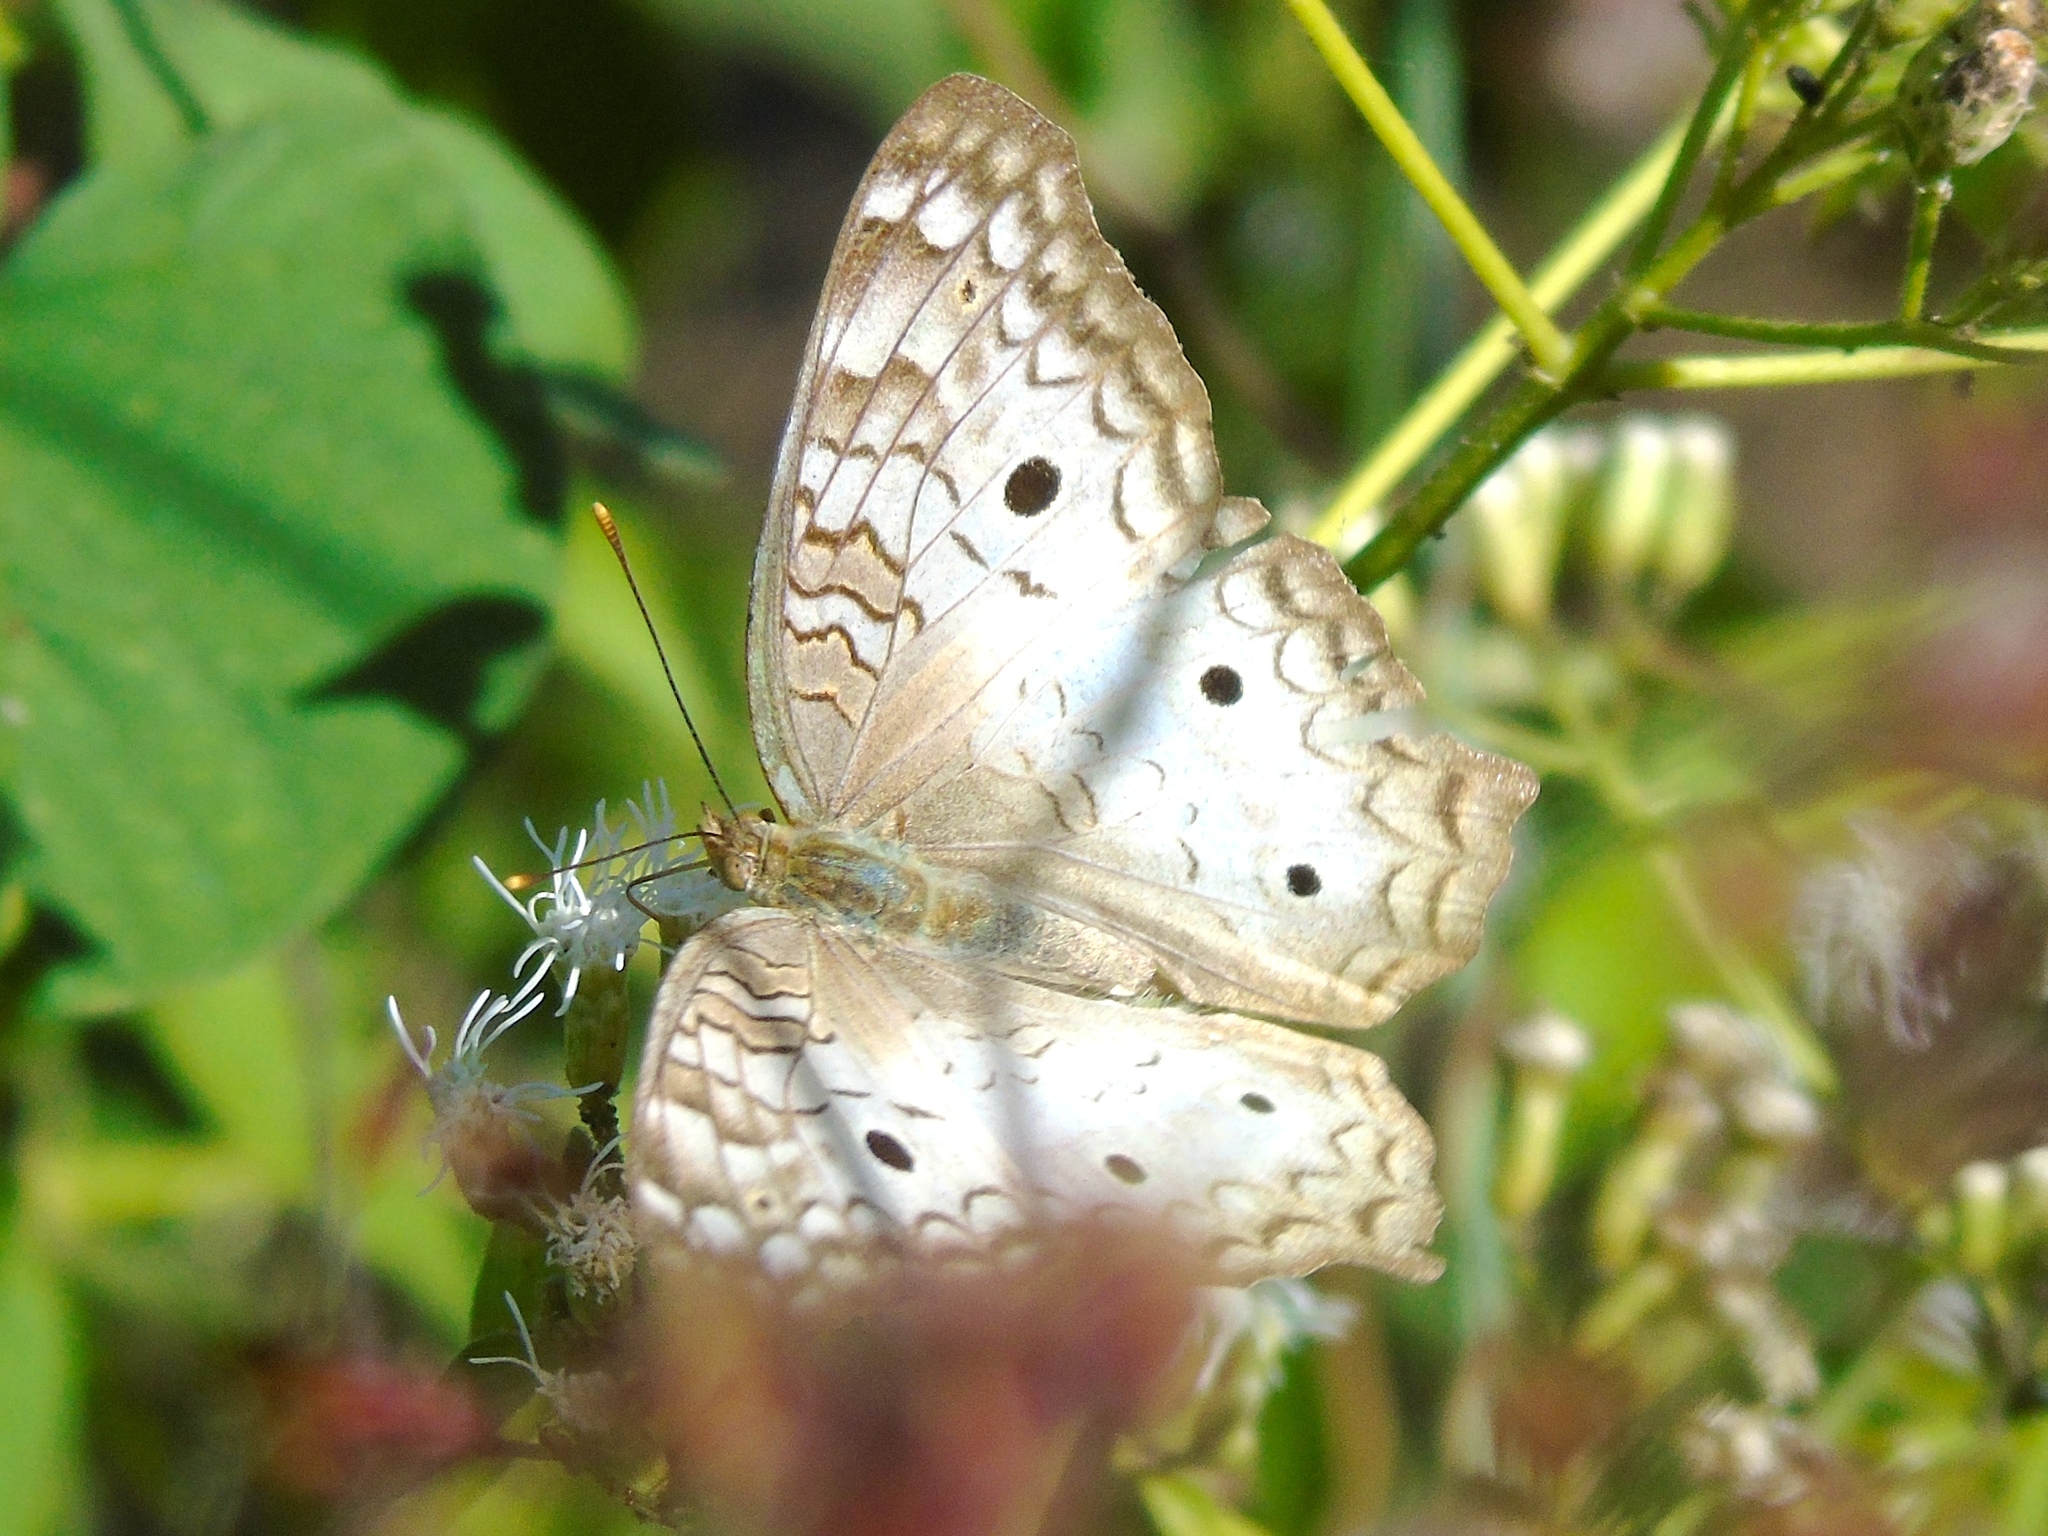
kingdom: Animalia
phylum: Arthropoda
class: Insecta
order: Lepidoptera
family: Nymphalidae
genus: Anartia
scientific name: Anartia jatrophae
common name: White peacock
